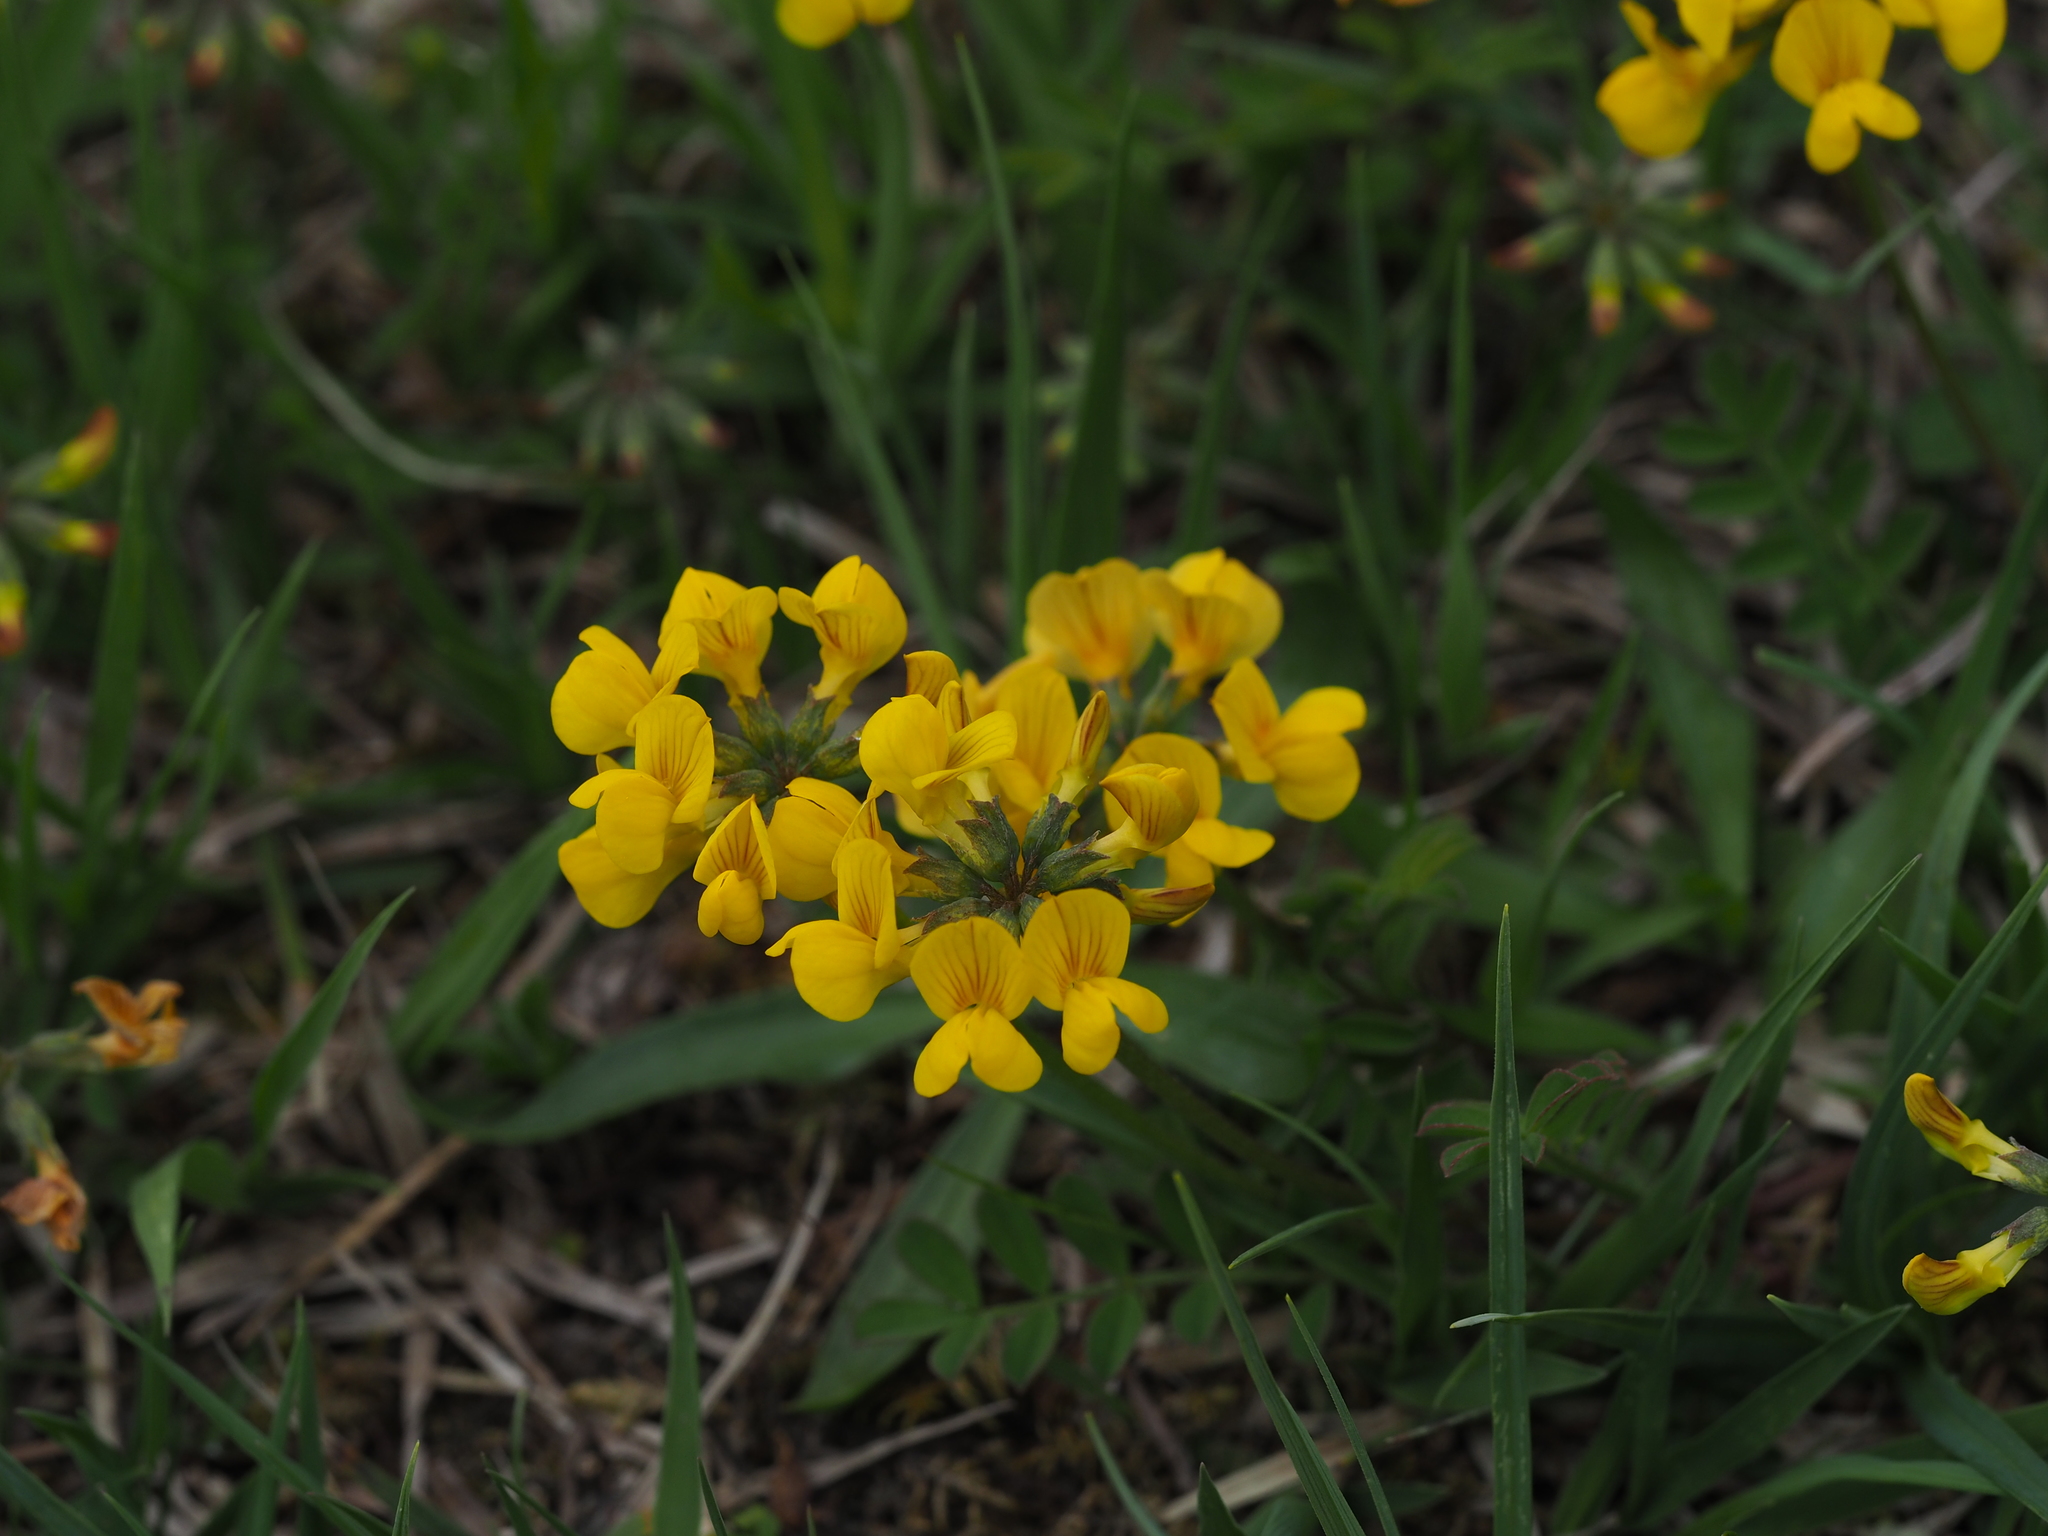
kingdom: Plantae
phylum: Tracheophyta
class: Magnoliopsida
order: Fabales
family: Fabaceae
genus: Hippocrepis
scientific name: Hippocrepis comosa
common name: Horseshoe vetch
